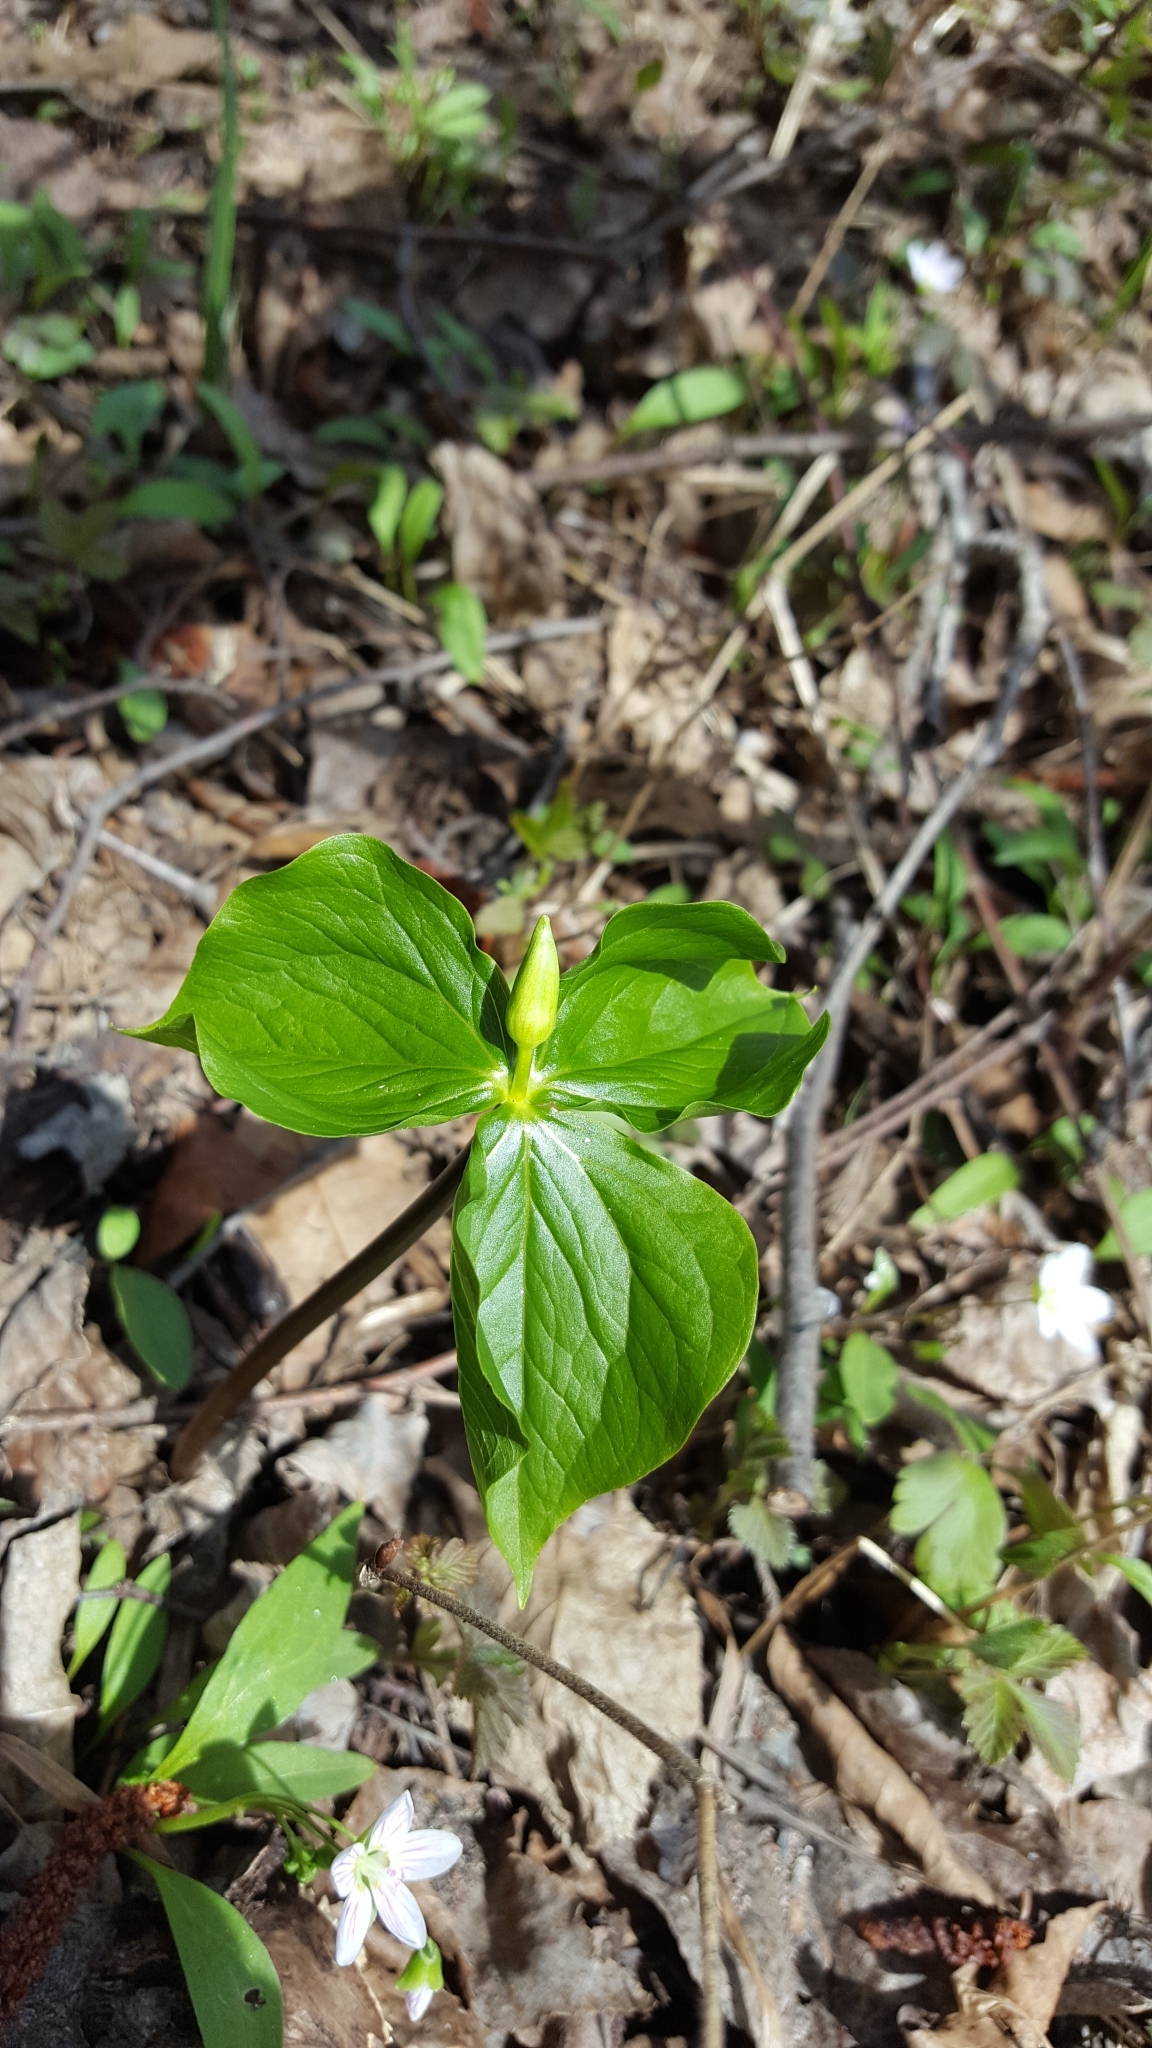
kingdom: Plantae
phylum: Tracheophyta
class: Liliopsida
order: Liliales
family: Melanthiaceae
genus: Trillium
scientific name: Trillium cernuum
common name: Nodding trillium
